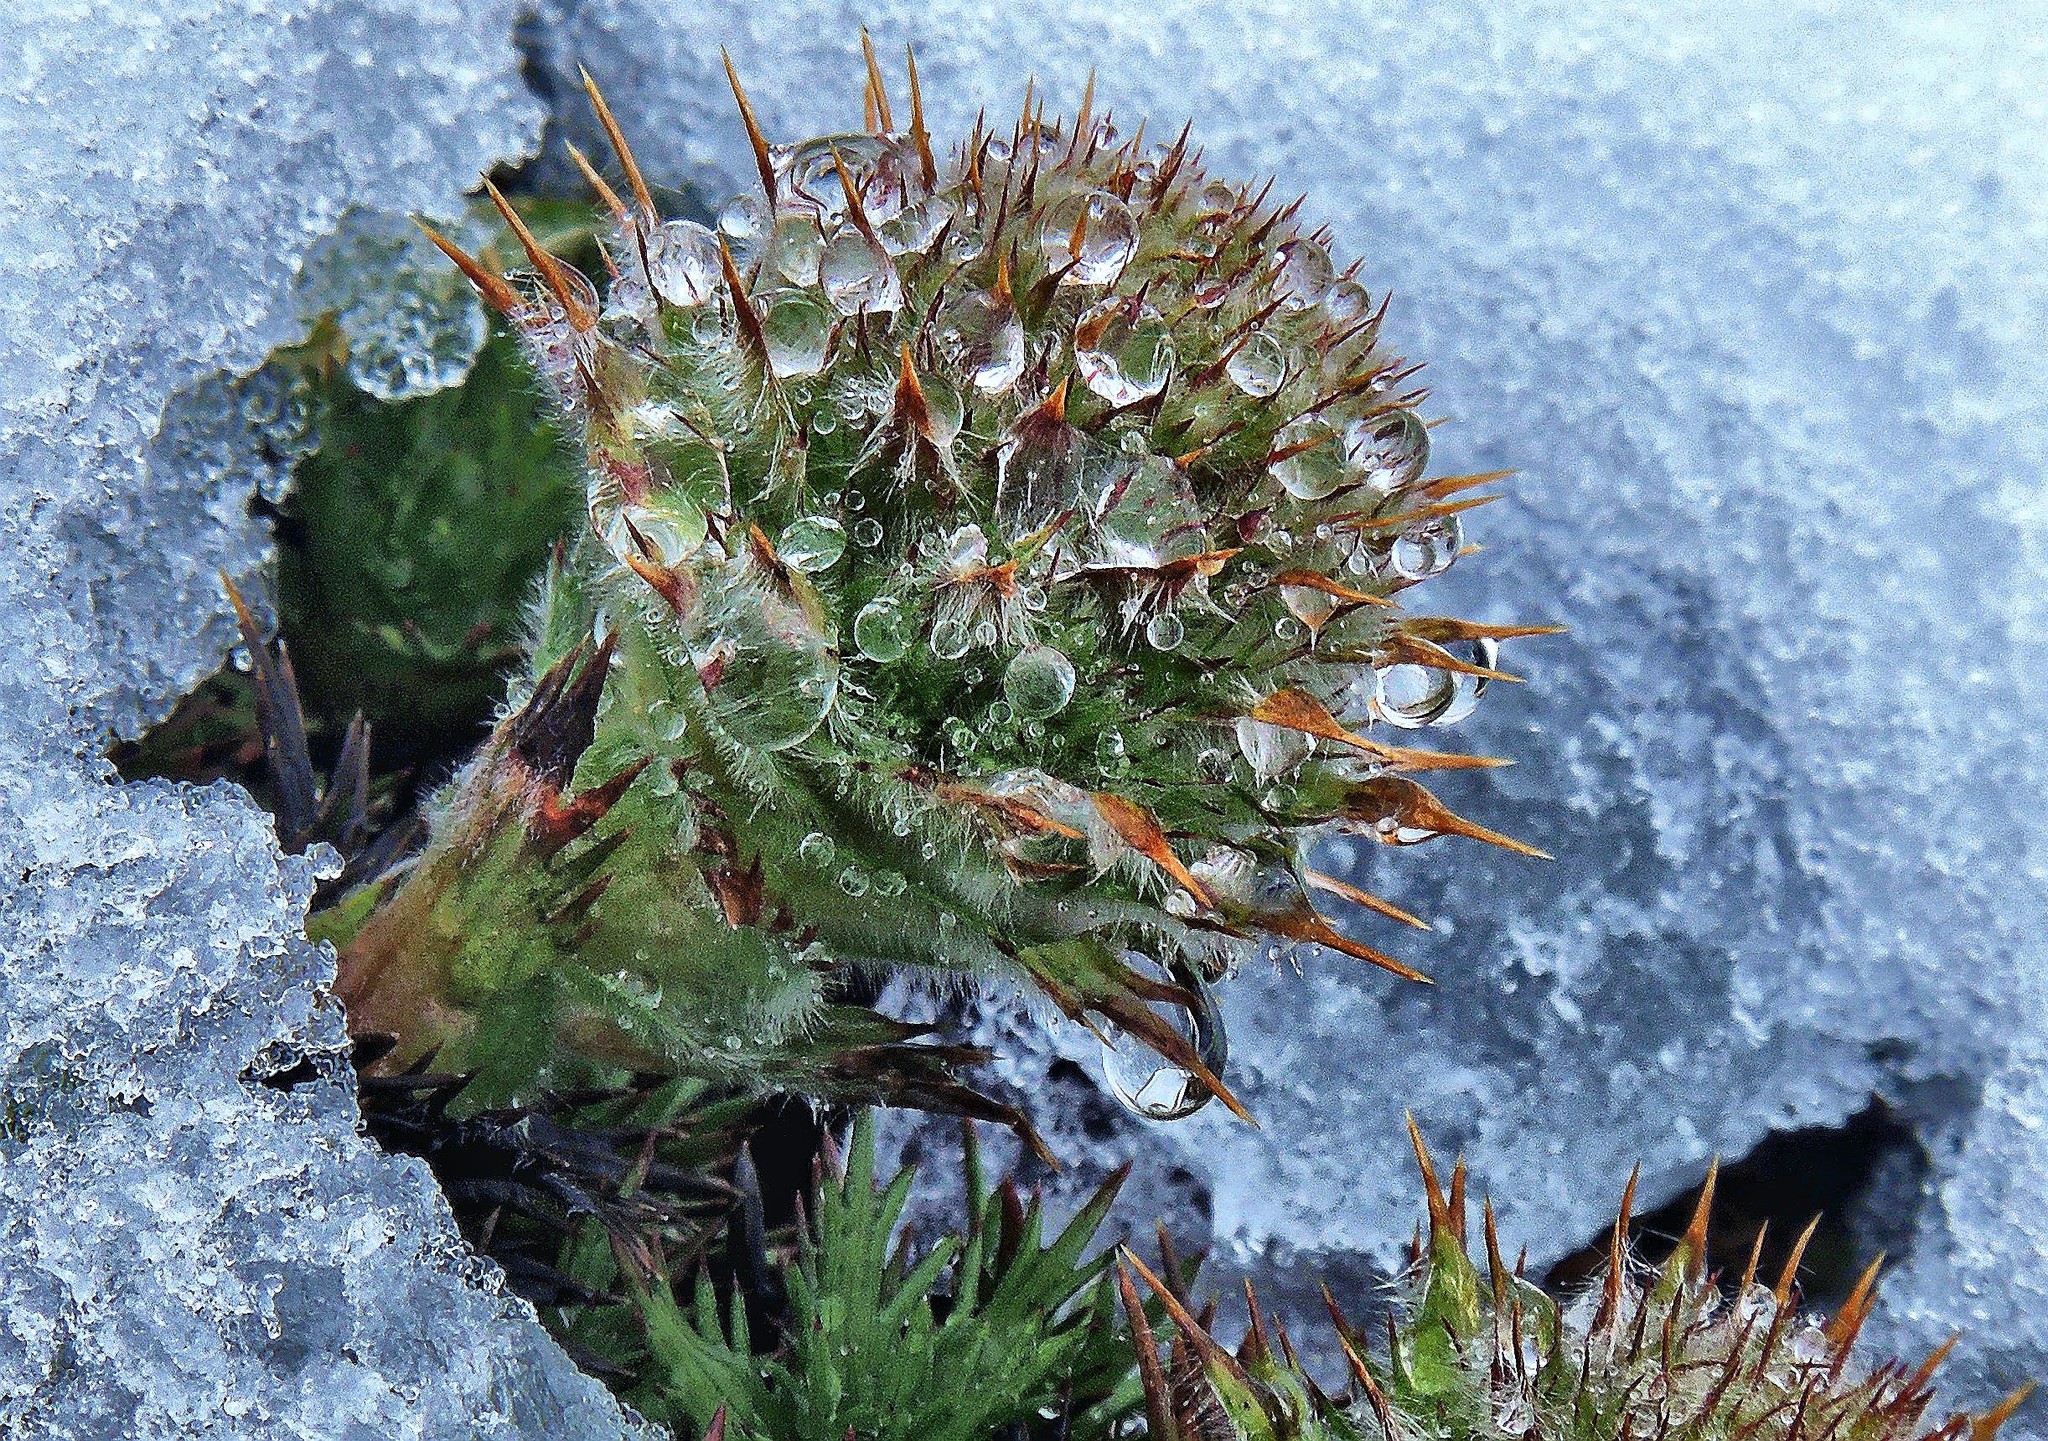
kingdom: Plantae
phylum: Tracheophyta
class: Magnoliopsida
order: Asterales
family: Asteraceae
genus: Nassauvia
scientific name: Nassauvia magellanica
